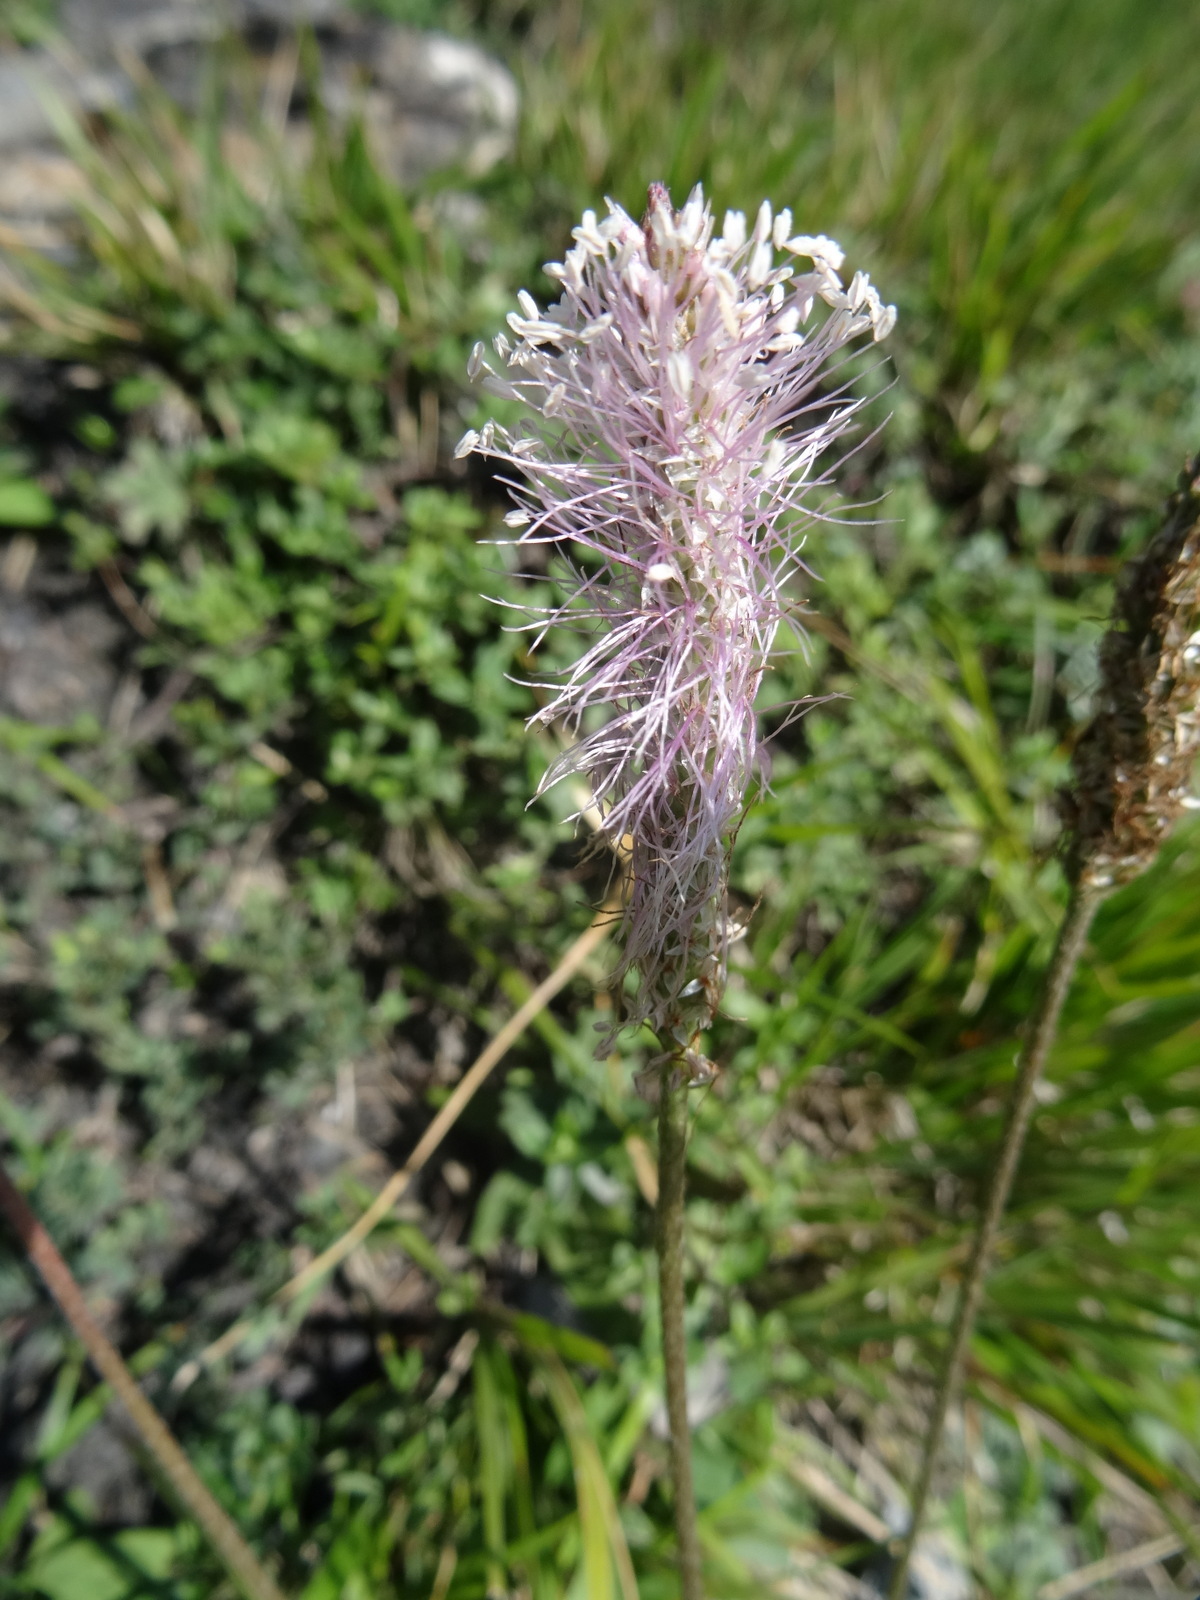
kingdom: Plantae
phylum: Tracheophyta
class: Magnoliopsida
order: Lamiales
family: Plantaginaceae
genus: Plantago
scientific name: Plantago media
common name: Hoary plantain
